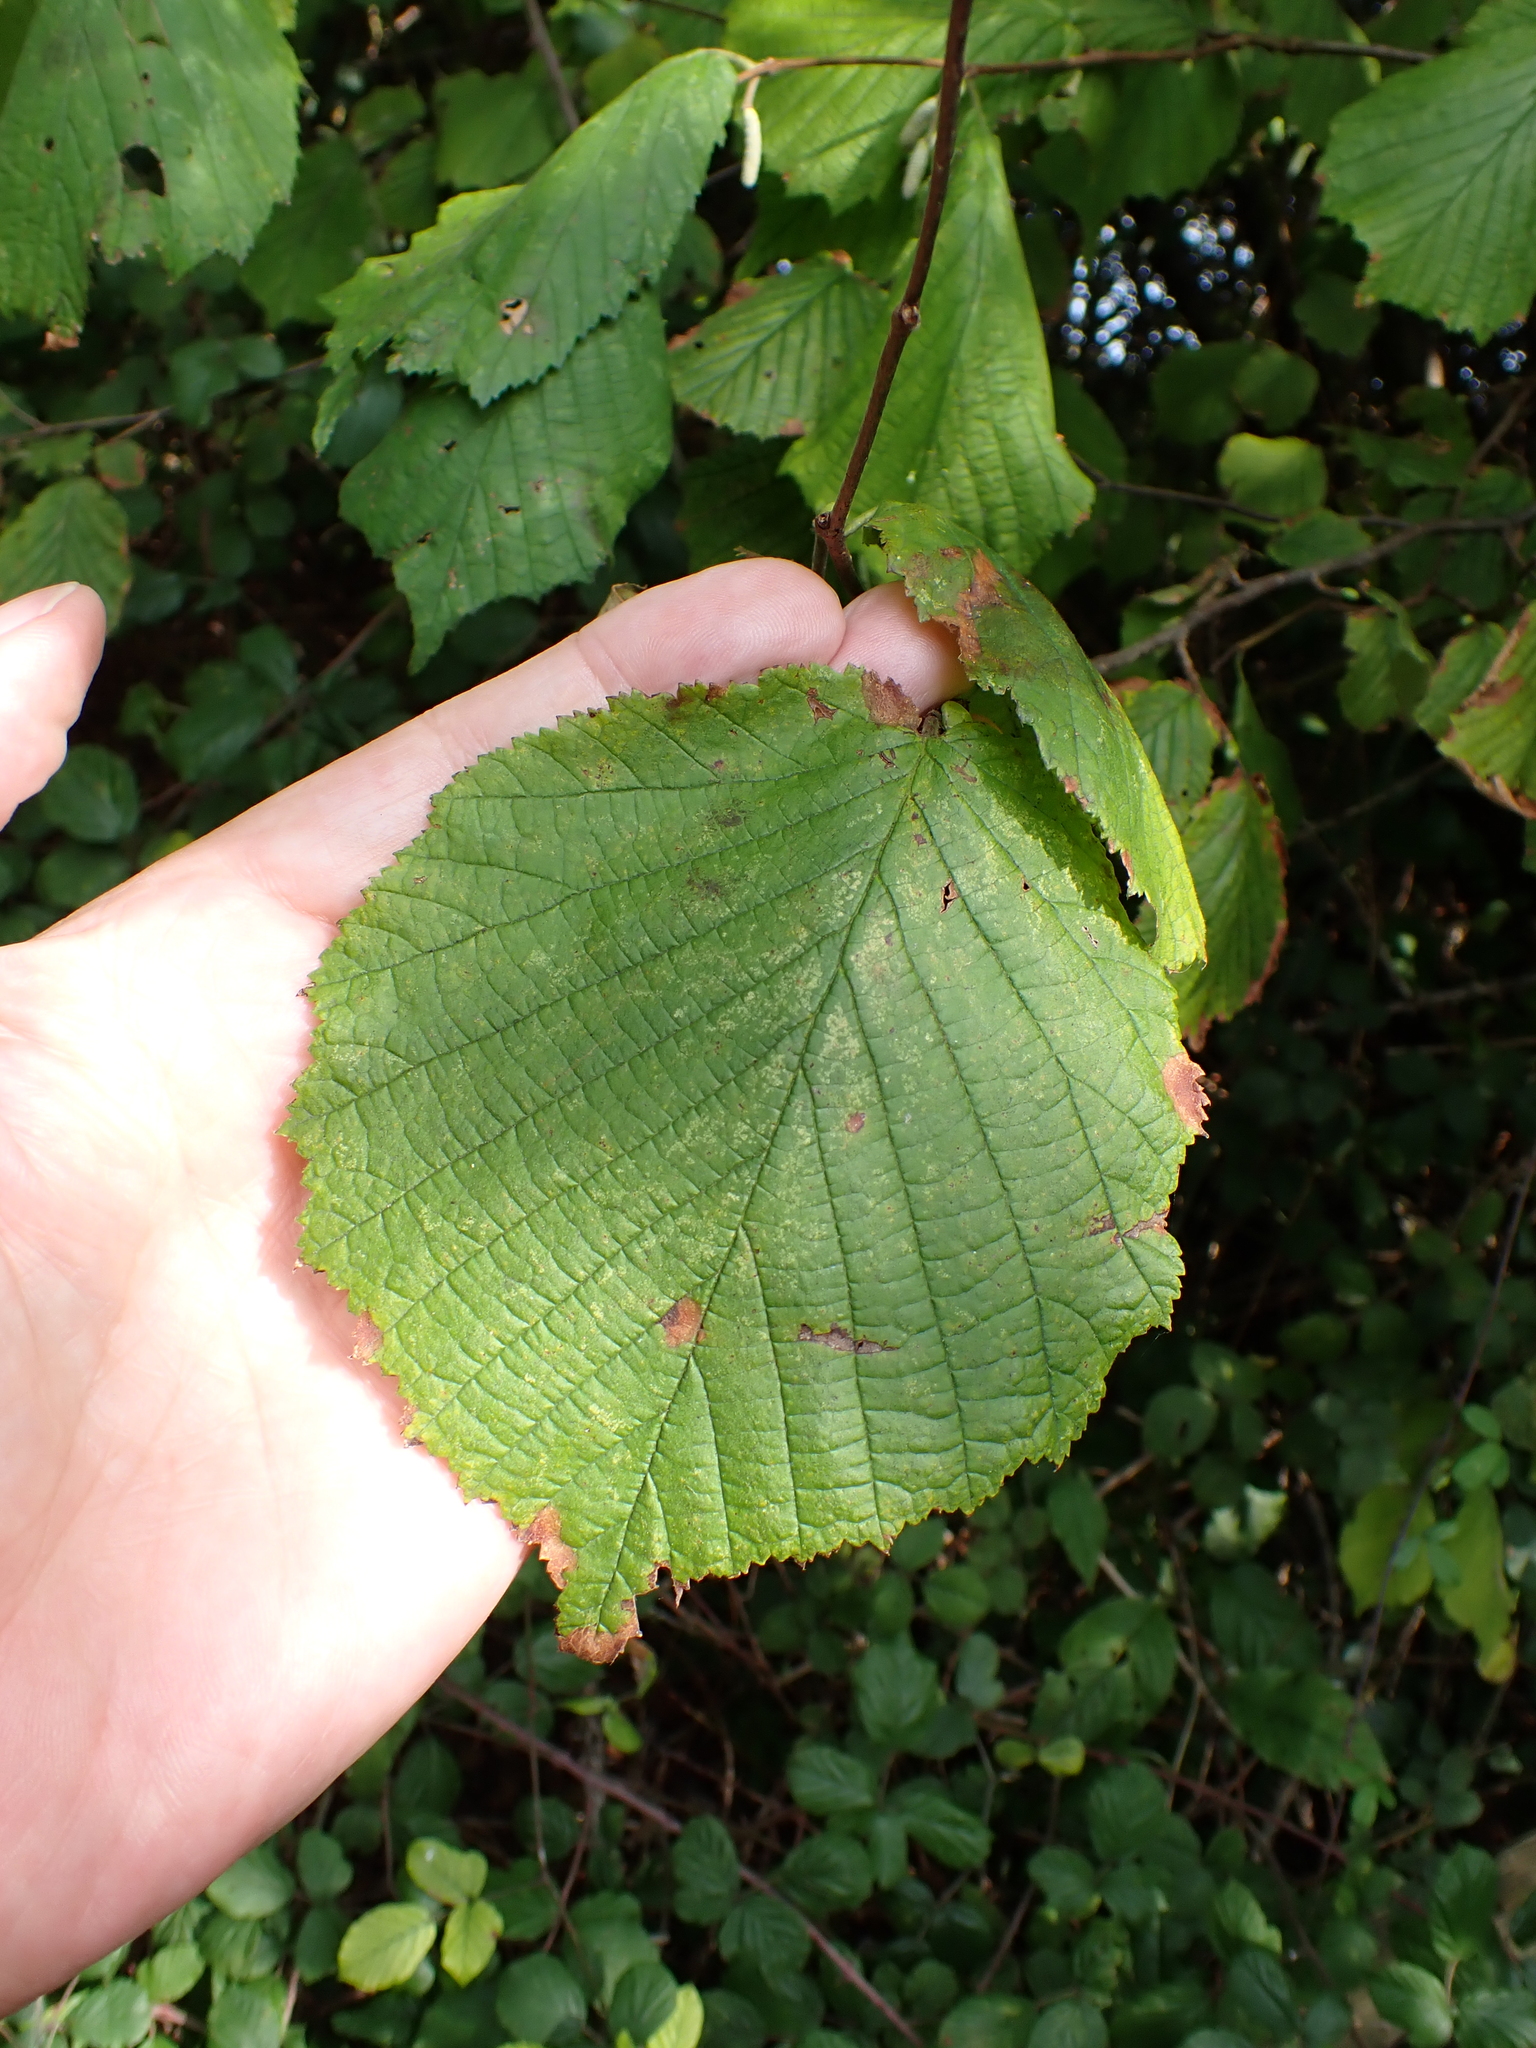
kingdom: Plantae
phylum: Tracheophyta
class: Magnoliopsida
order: Fagales
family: Betulaceae
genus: Corylus
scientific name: Corylus avellana
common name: European hazel
